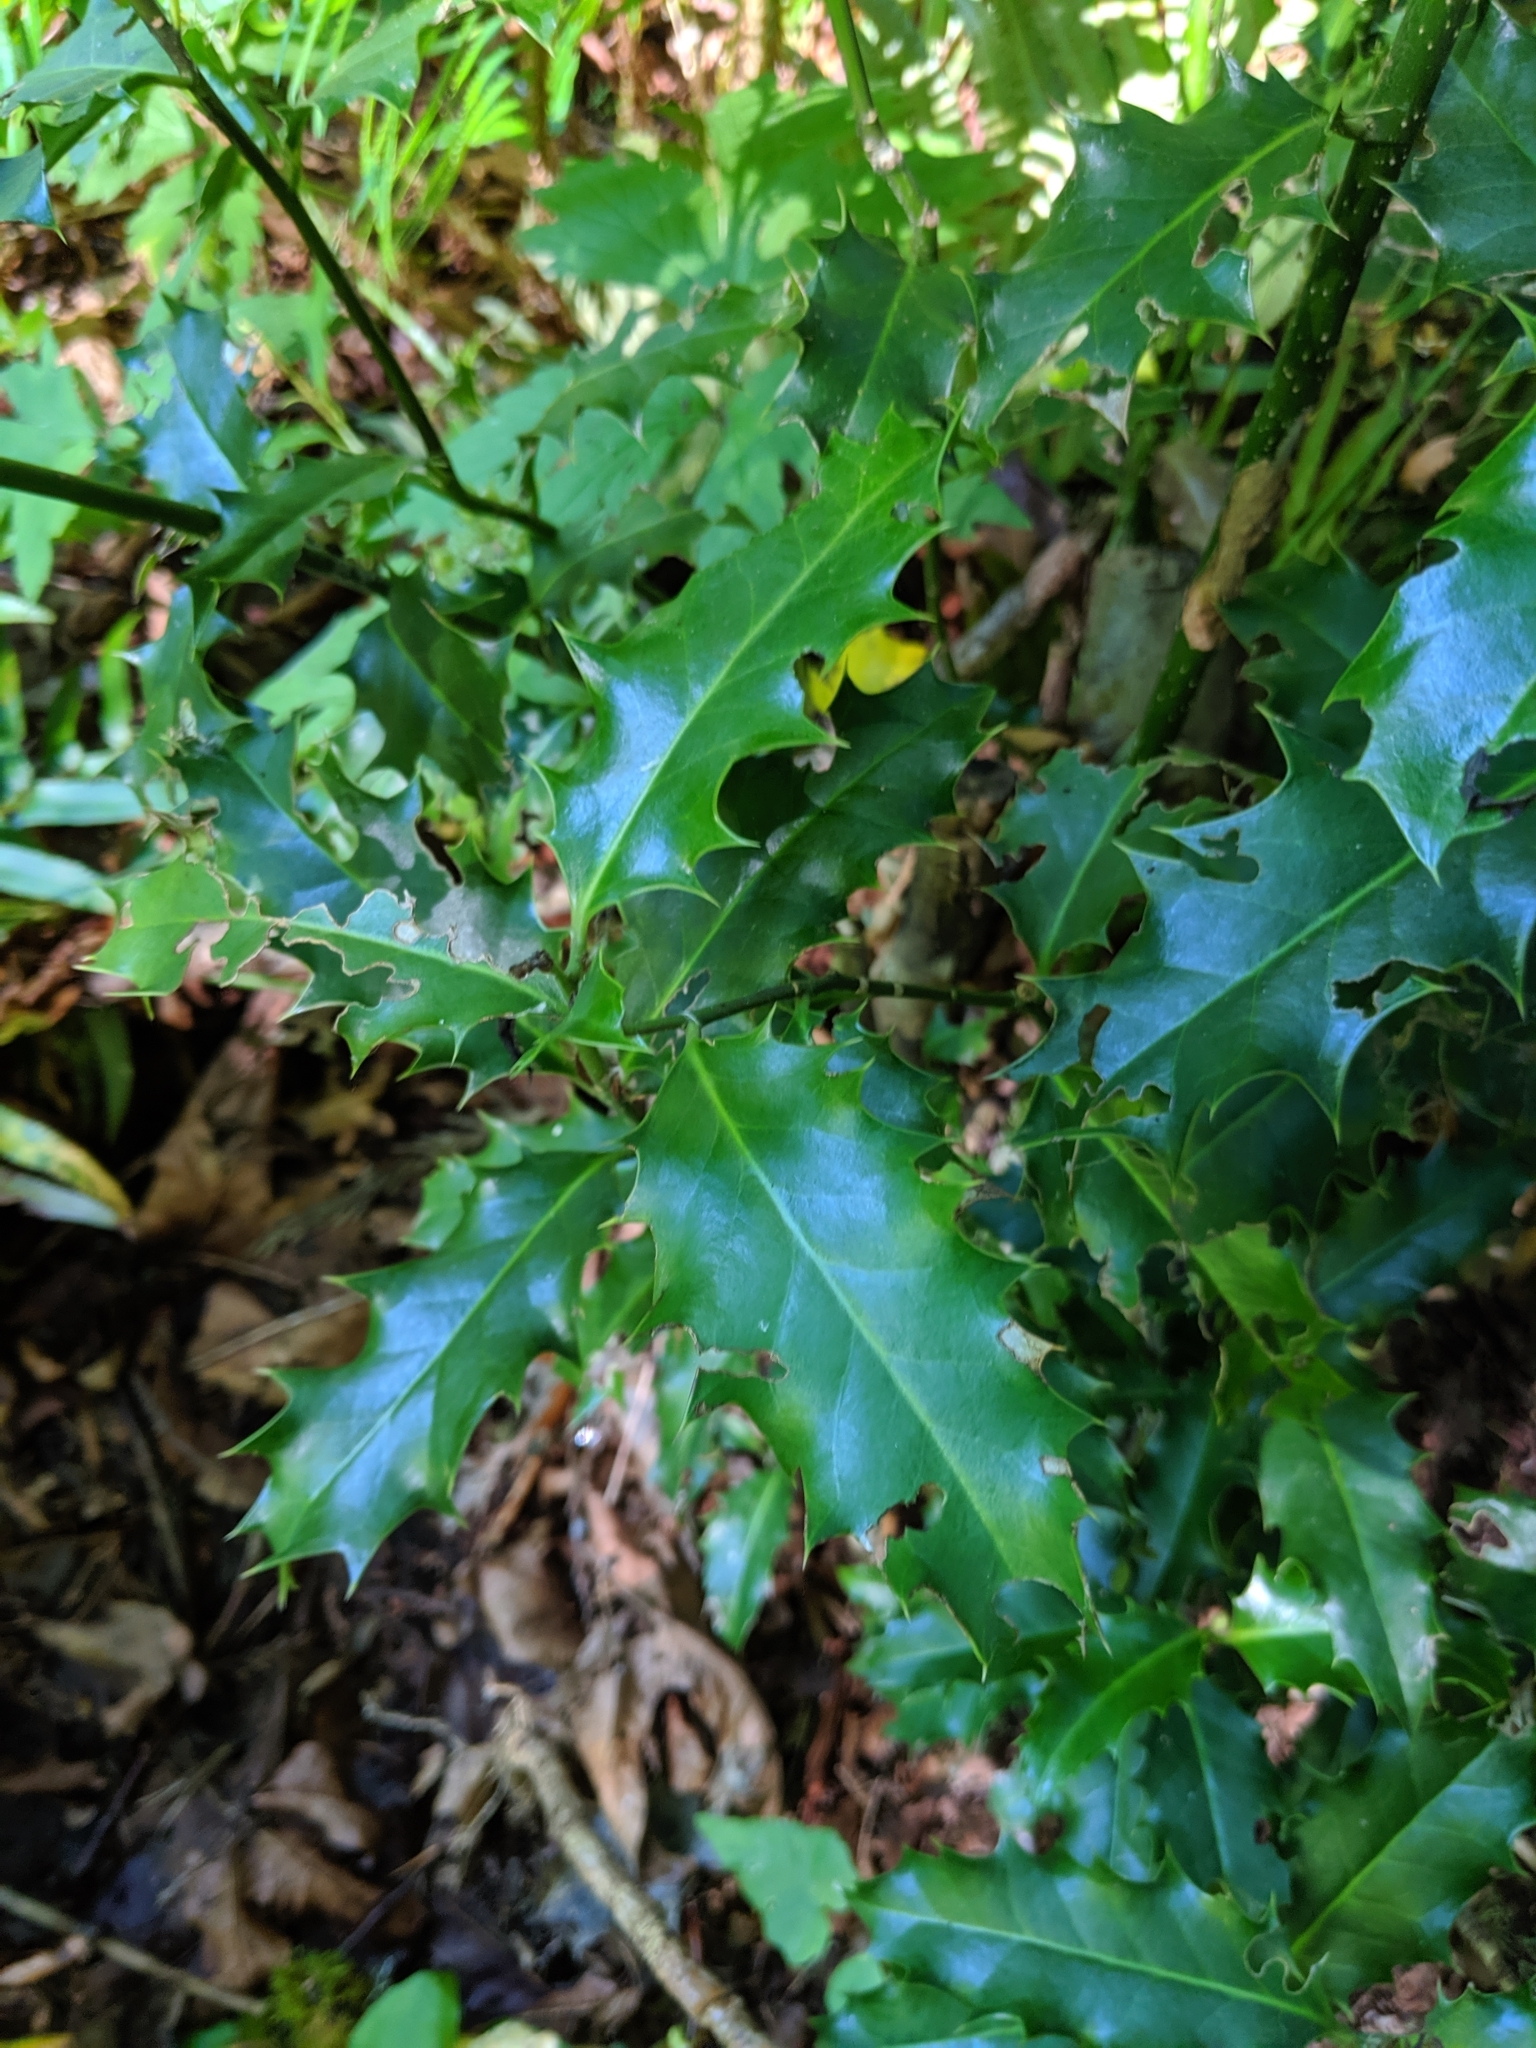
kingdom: Plantae
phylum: Tracheophyta
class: Magnoliopsida
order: Aquifoliales
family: Aquifoliaceae
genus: Ilex
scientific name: Ilex aquifolium
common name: English holly
